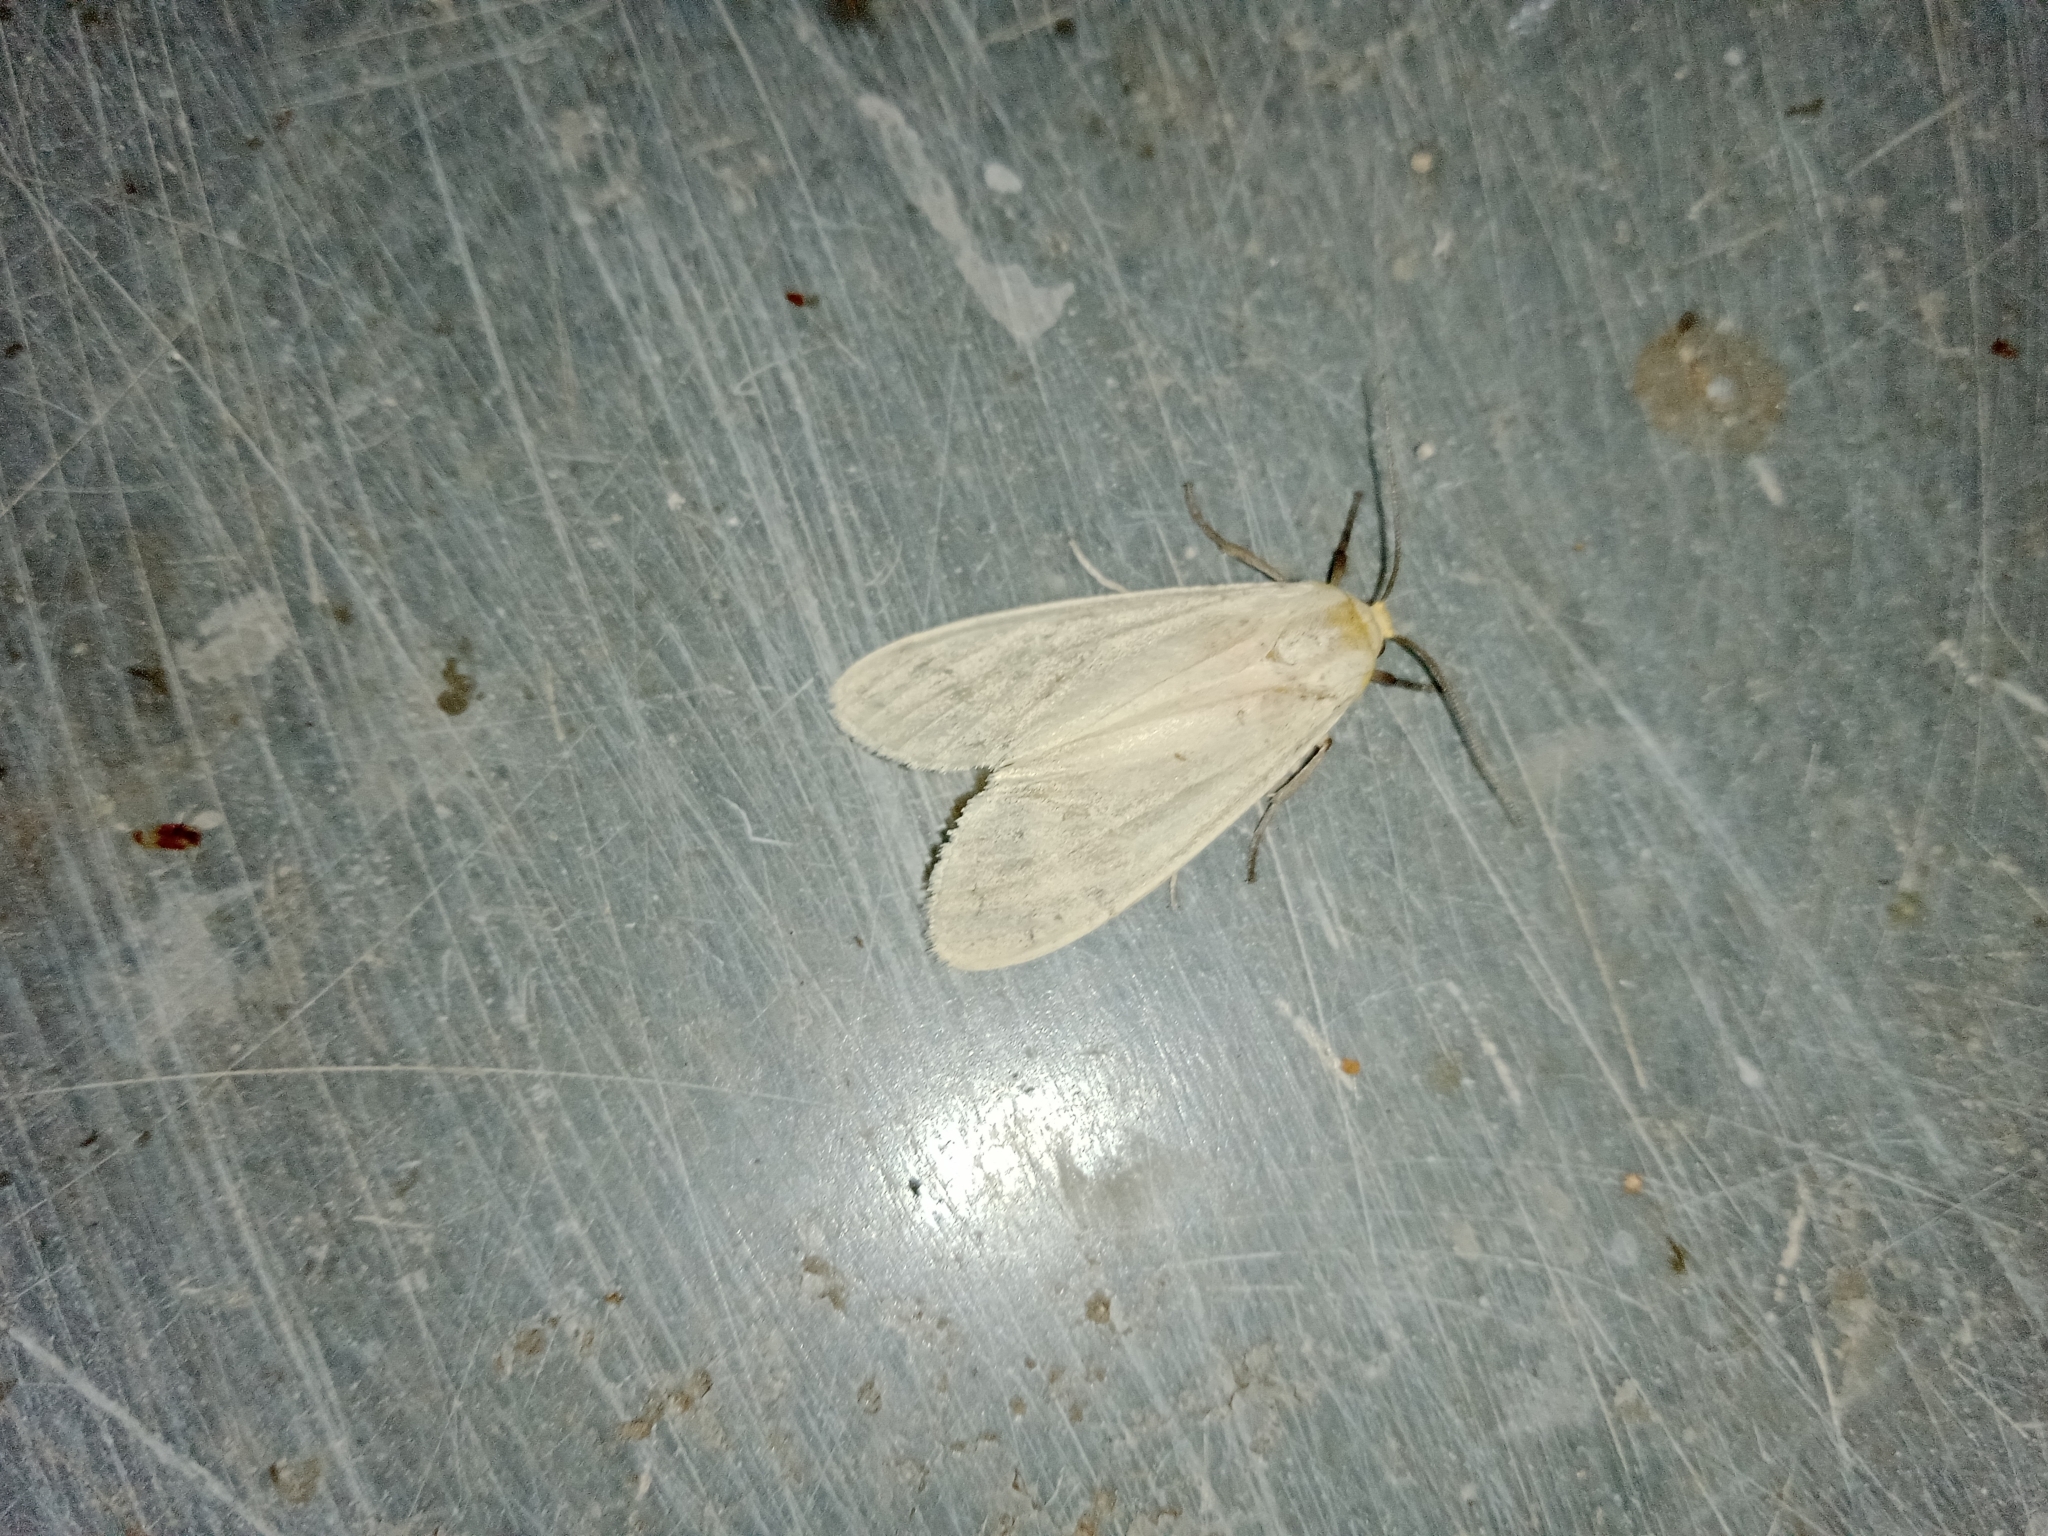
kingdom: Animalia
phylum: Arthropoda
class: Insecta
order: Lepidoptera
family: Erebidae
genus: Pareuchaetes
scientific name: Pareuchaetes pseudoinsulata
